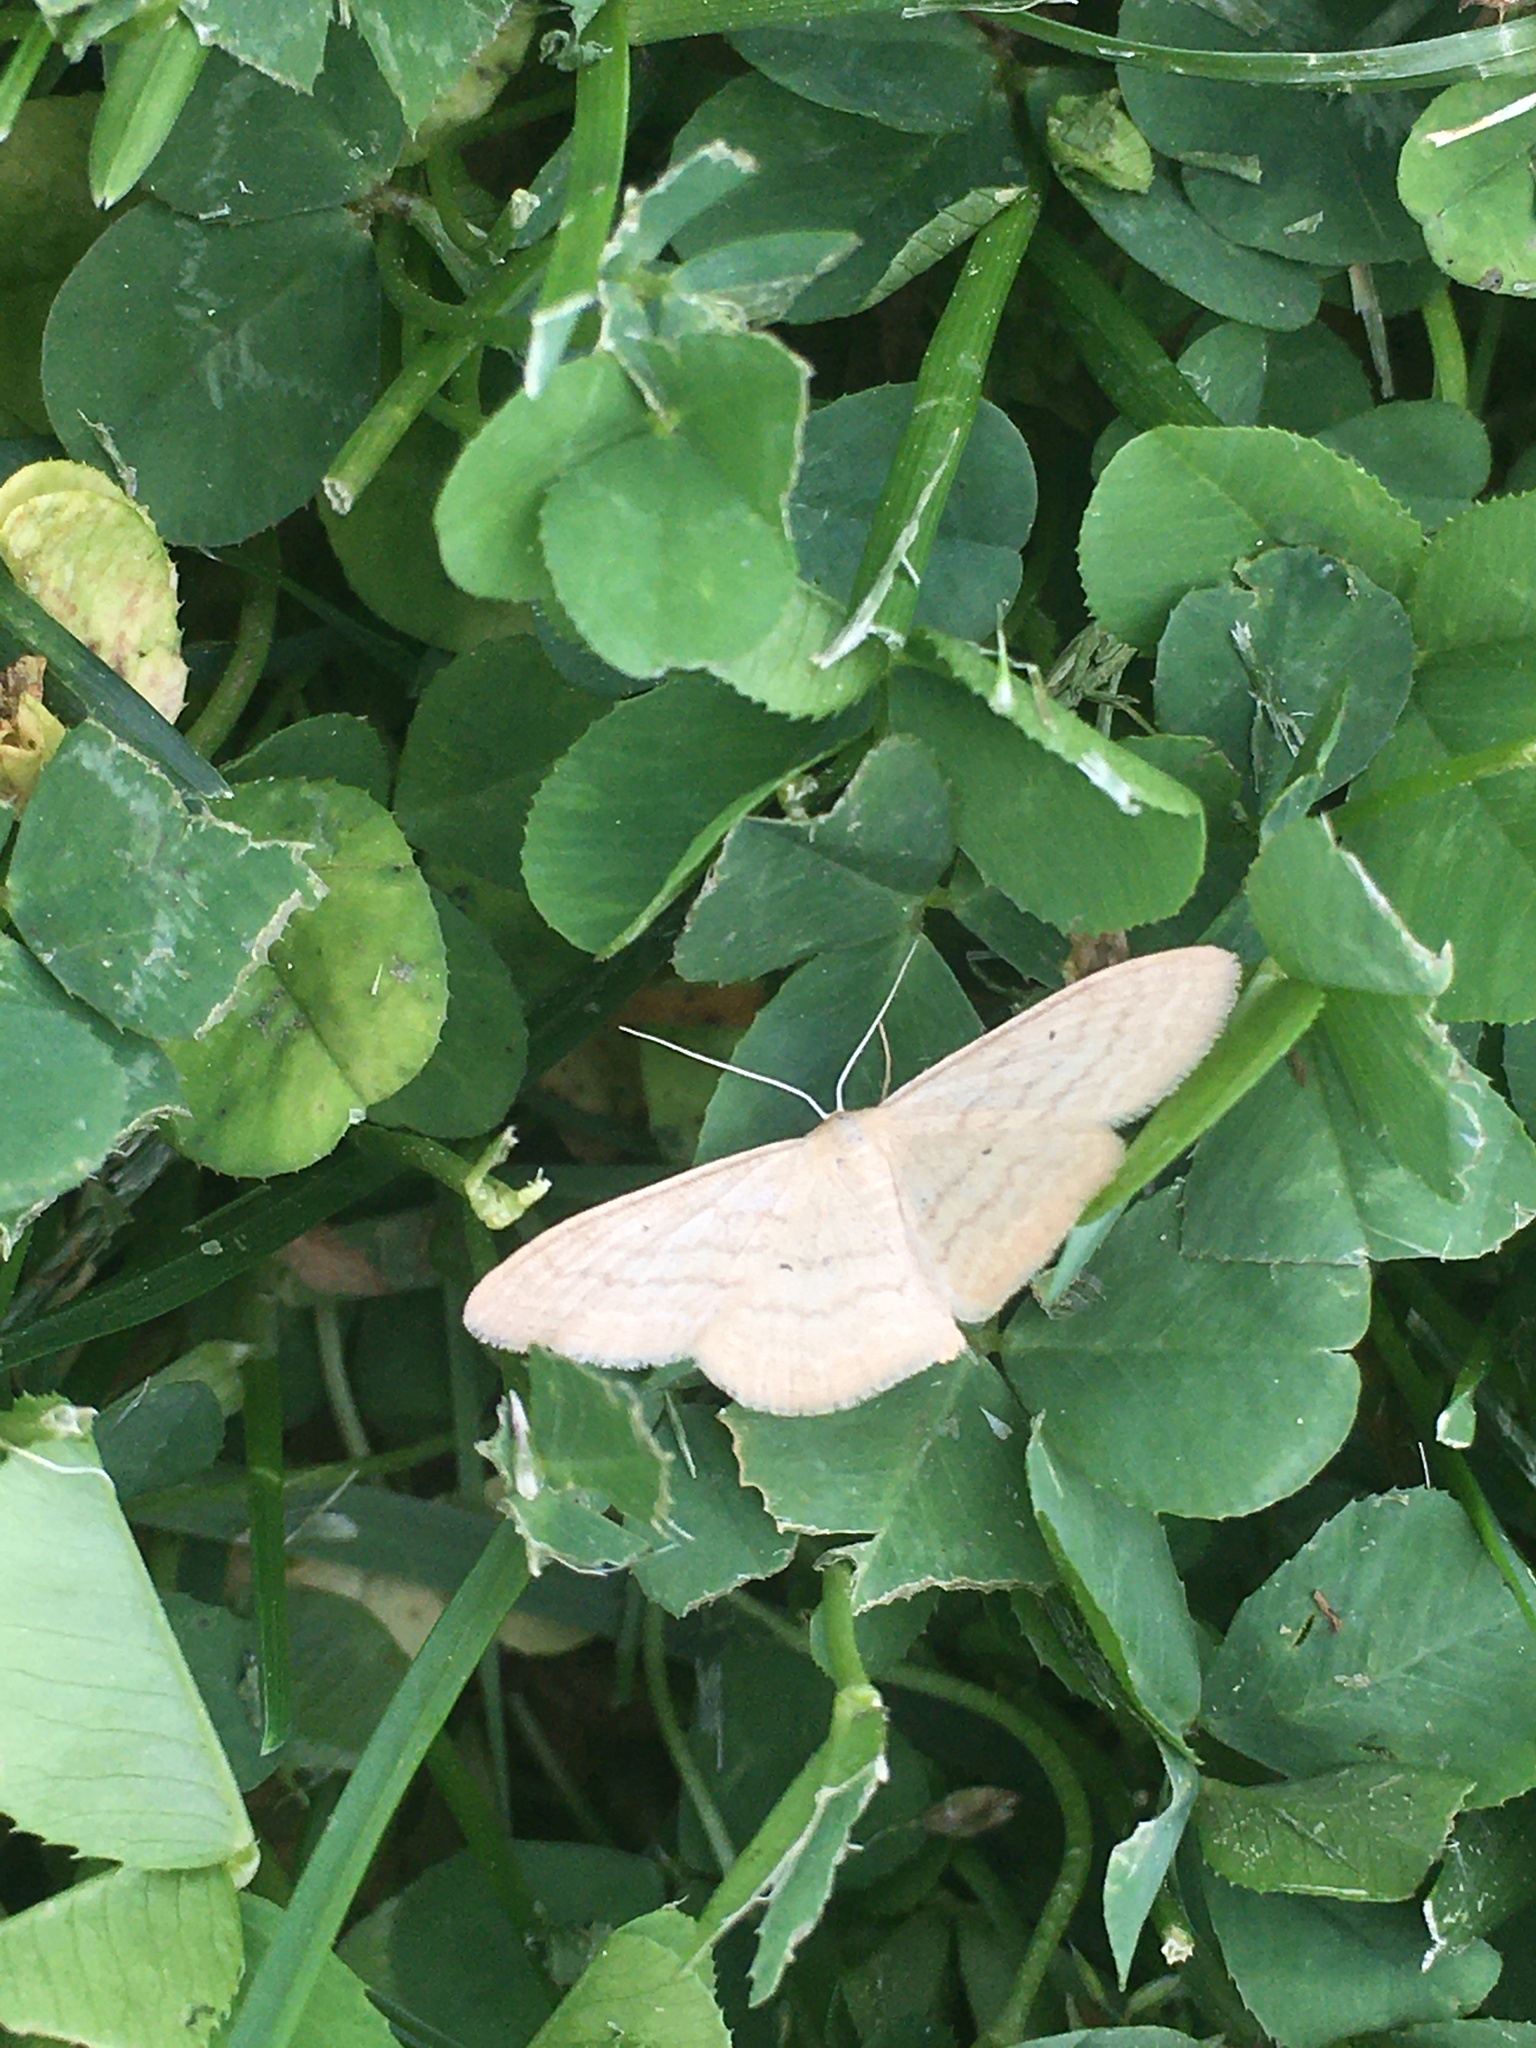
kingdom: Animalia
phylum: Arthropoda
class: Insecta
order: Lepidoptera
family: Geometridae
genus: Scopula
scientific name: Scopula inductata
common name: Soft-lined wave
